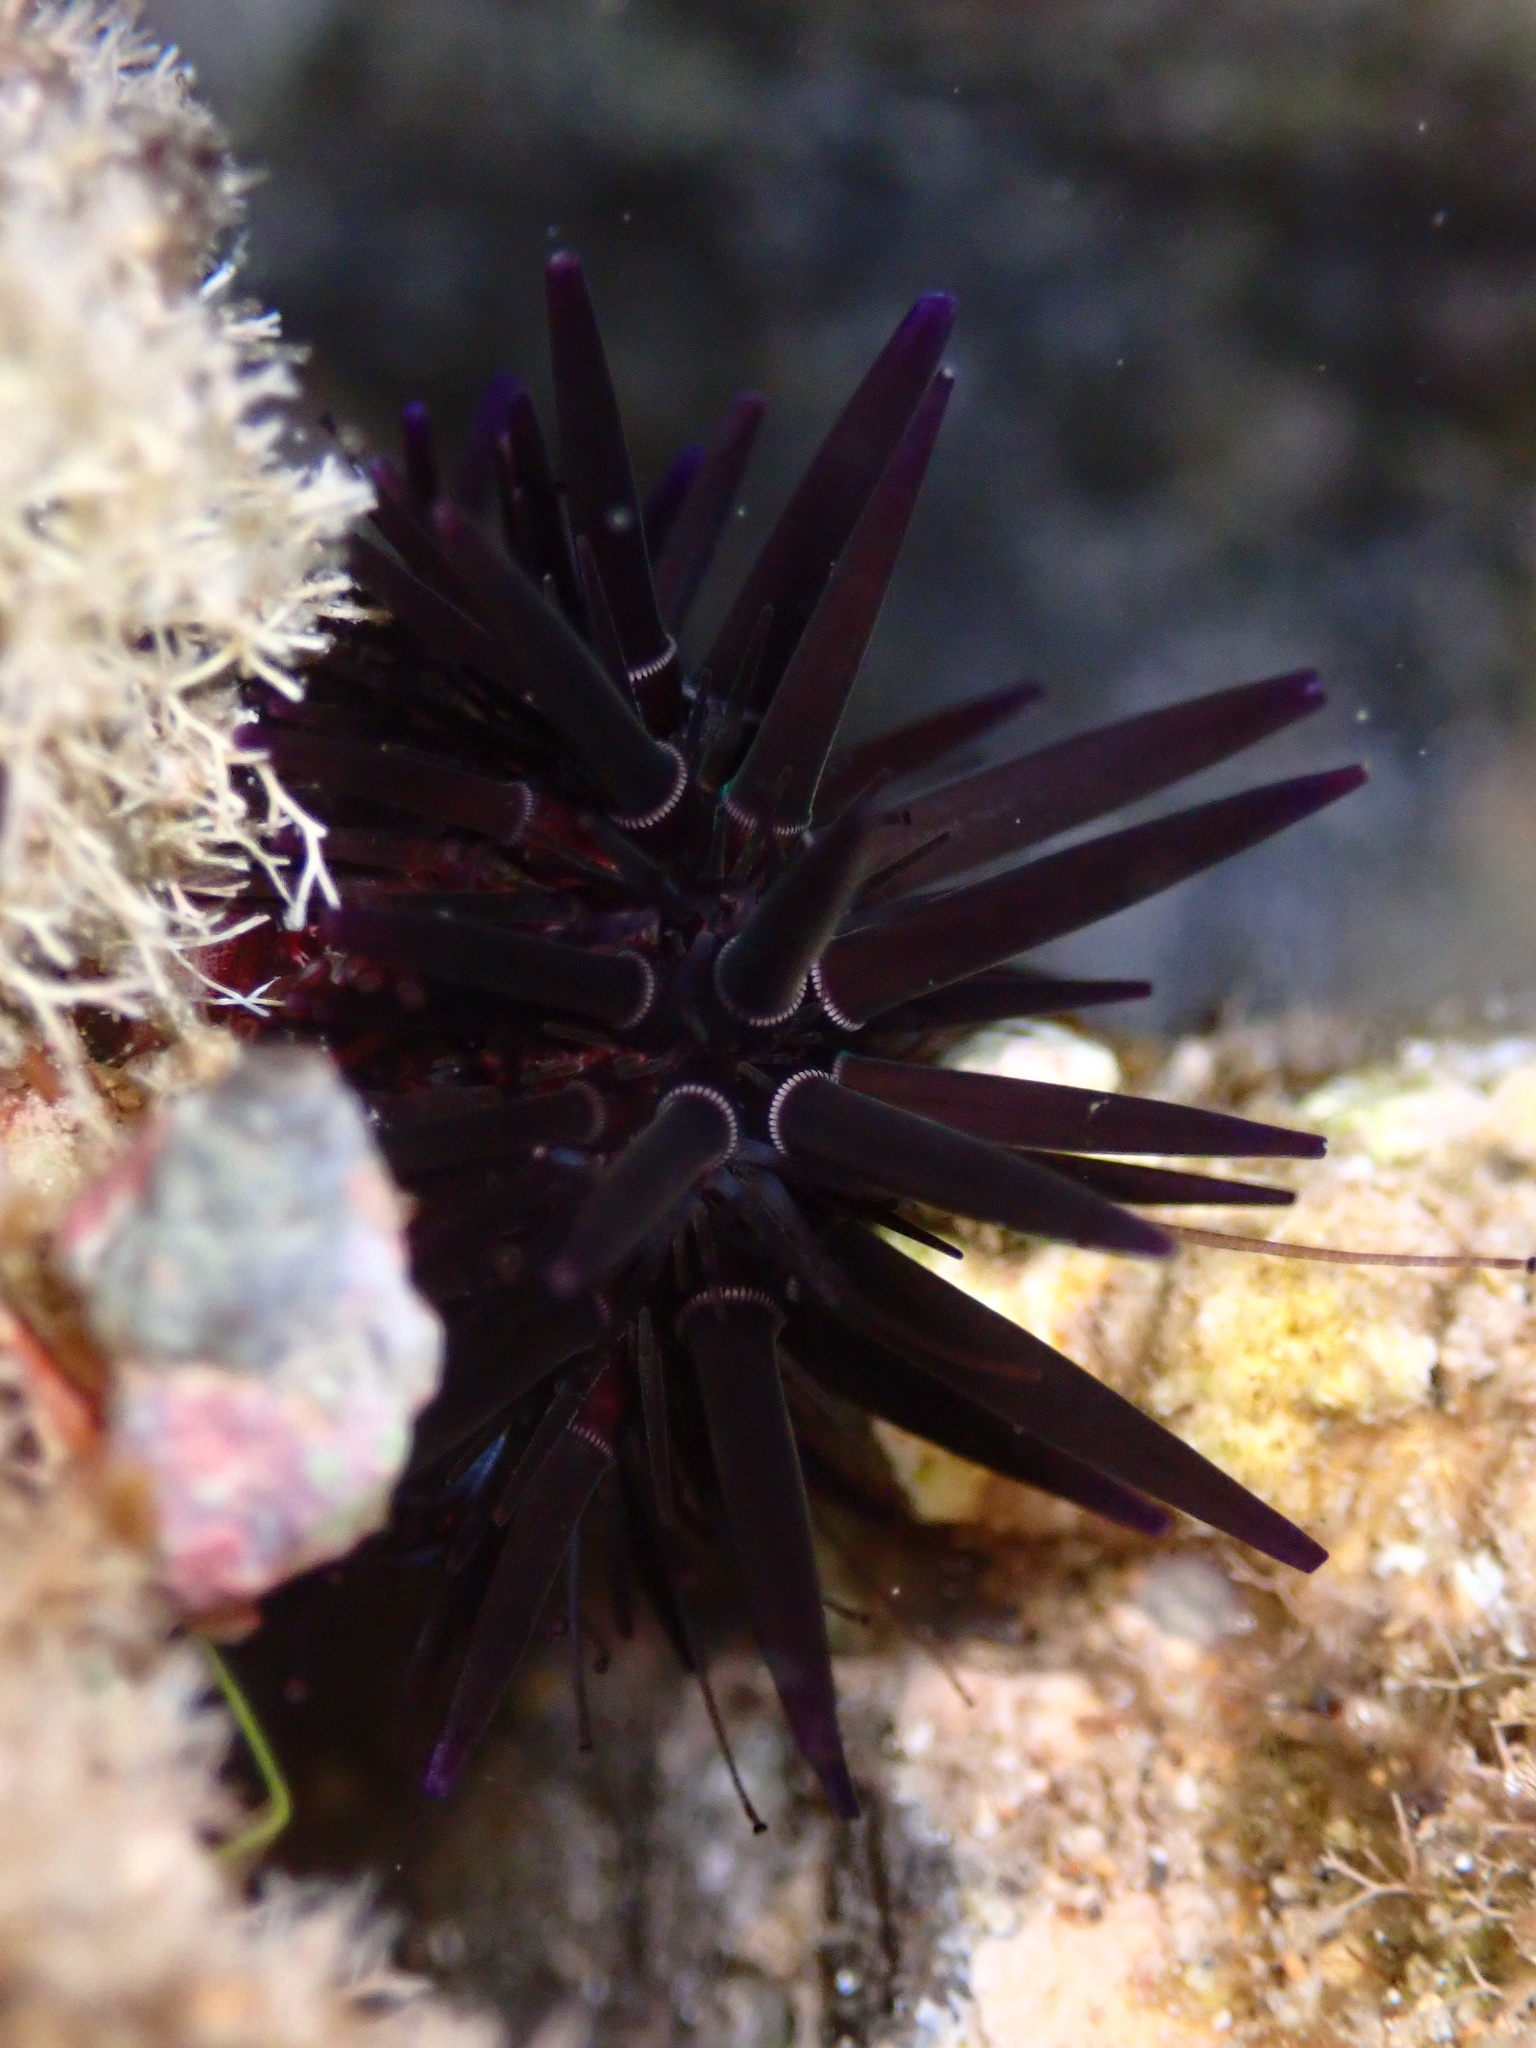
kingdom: Animalia
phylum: Echinodermata
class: Echinoidea
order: Camarodonta
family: Echinometridae
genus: Echinometra
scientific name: Echinometra oblonga
